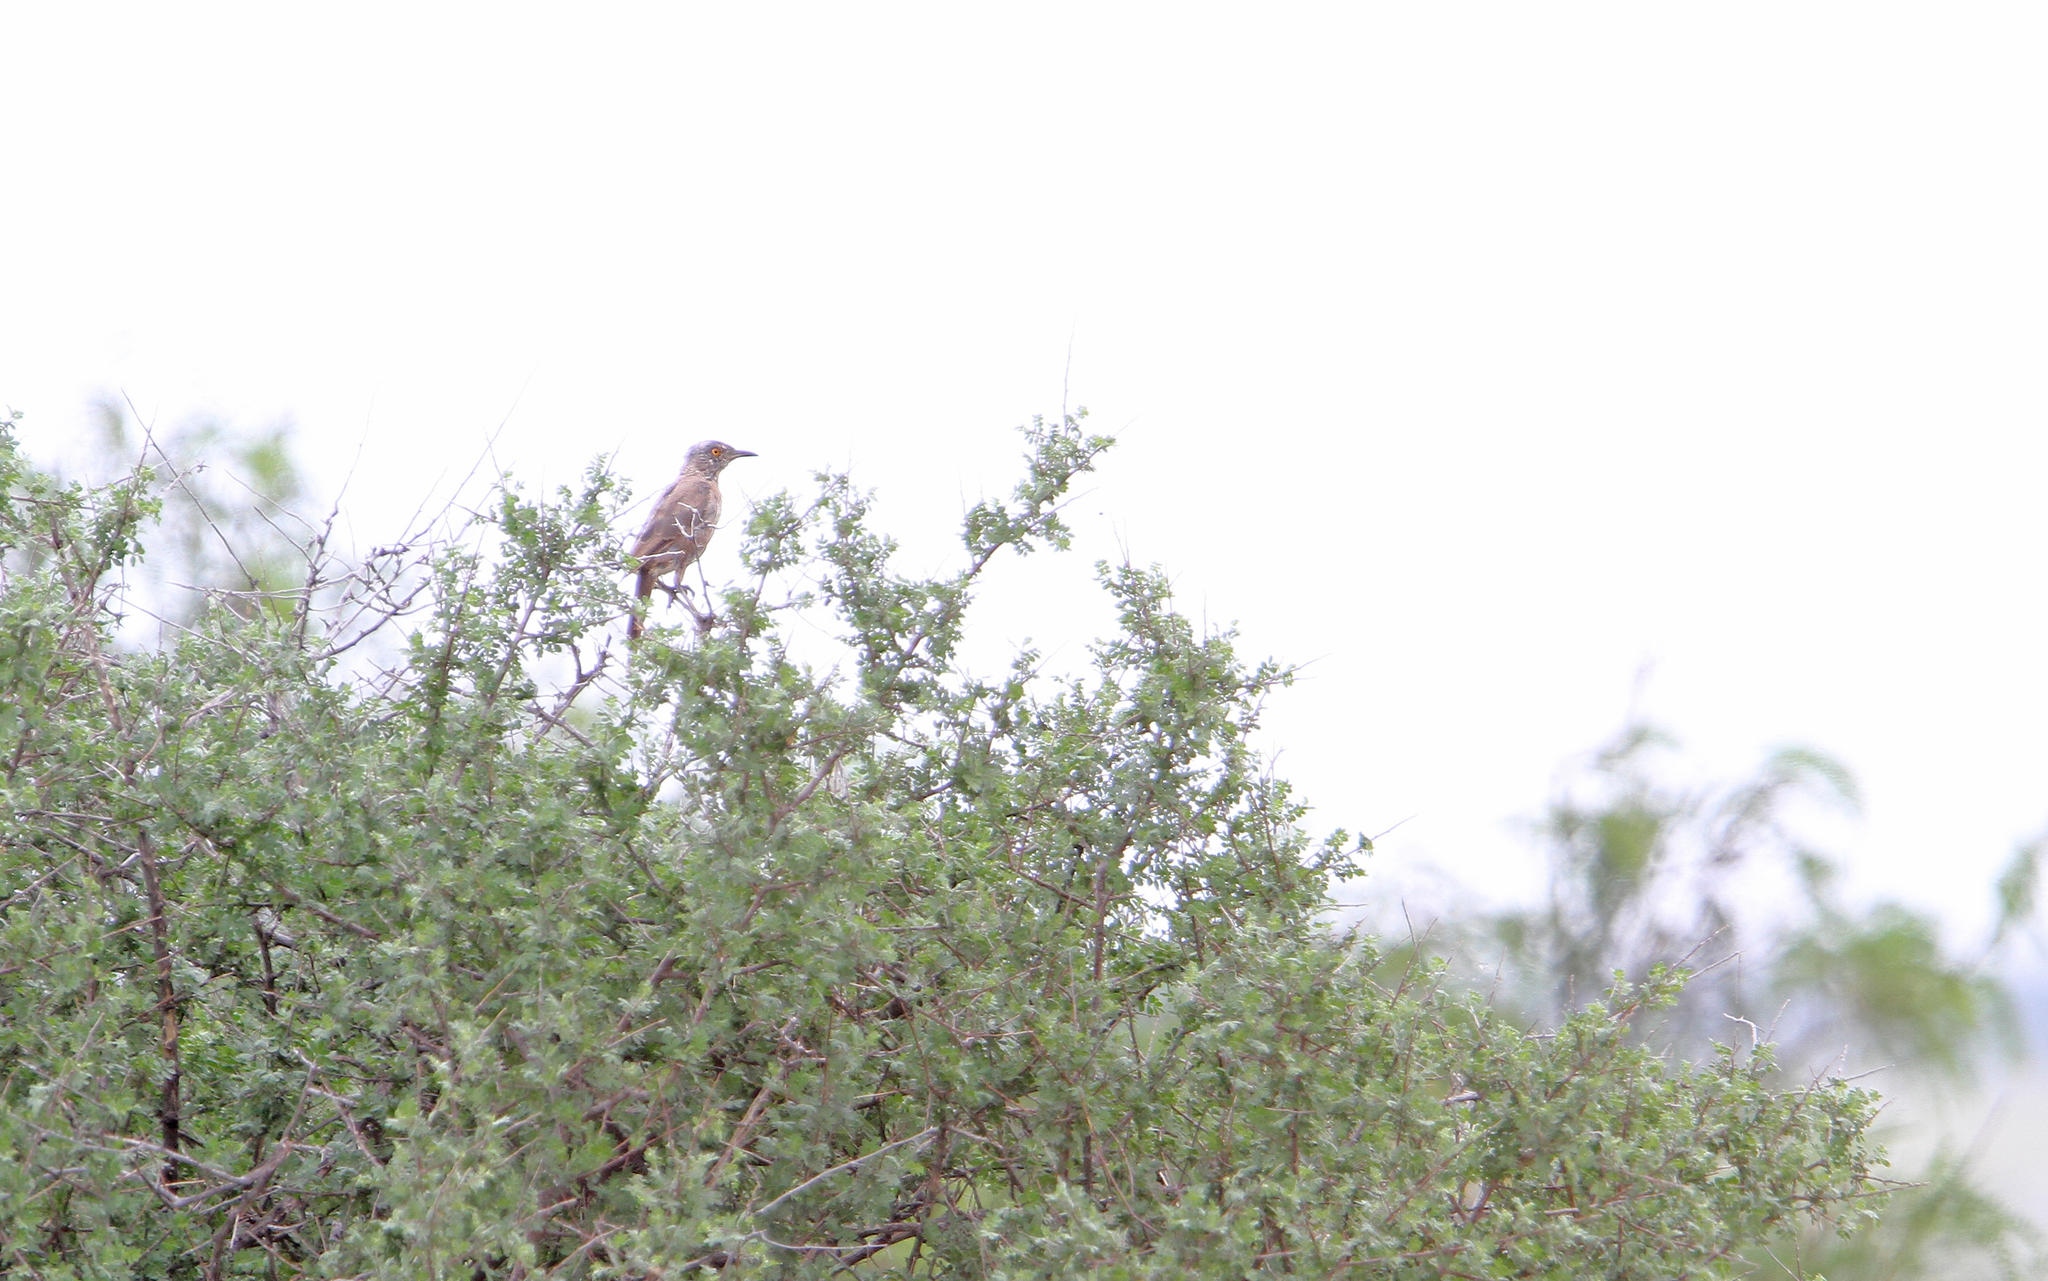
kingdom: Animalia
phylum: Chordata
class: Aves
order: Passeriformes
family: Mimidae
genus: Toxostoma
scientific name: Toxostoma bendirei
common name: Bendire's thrasher
